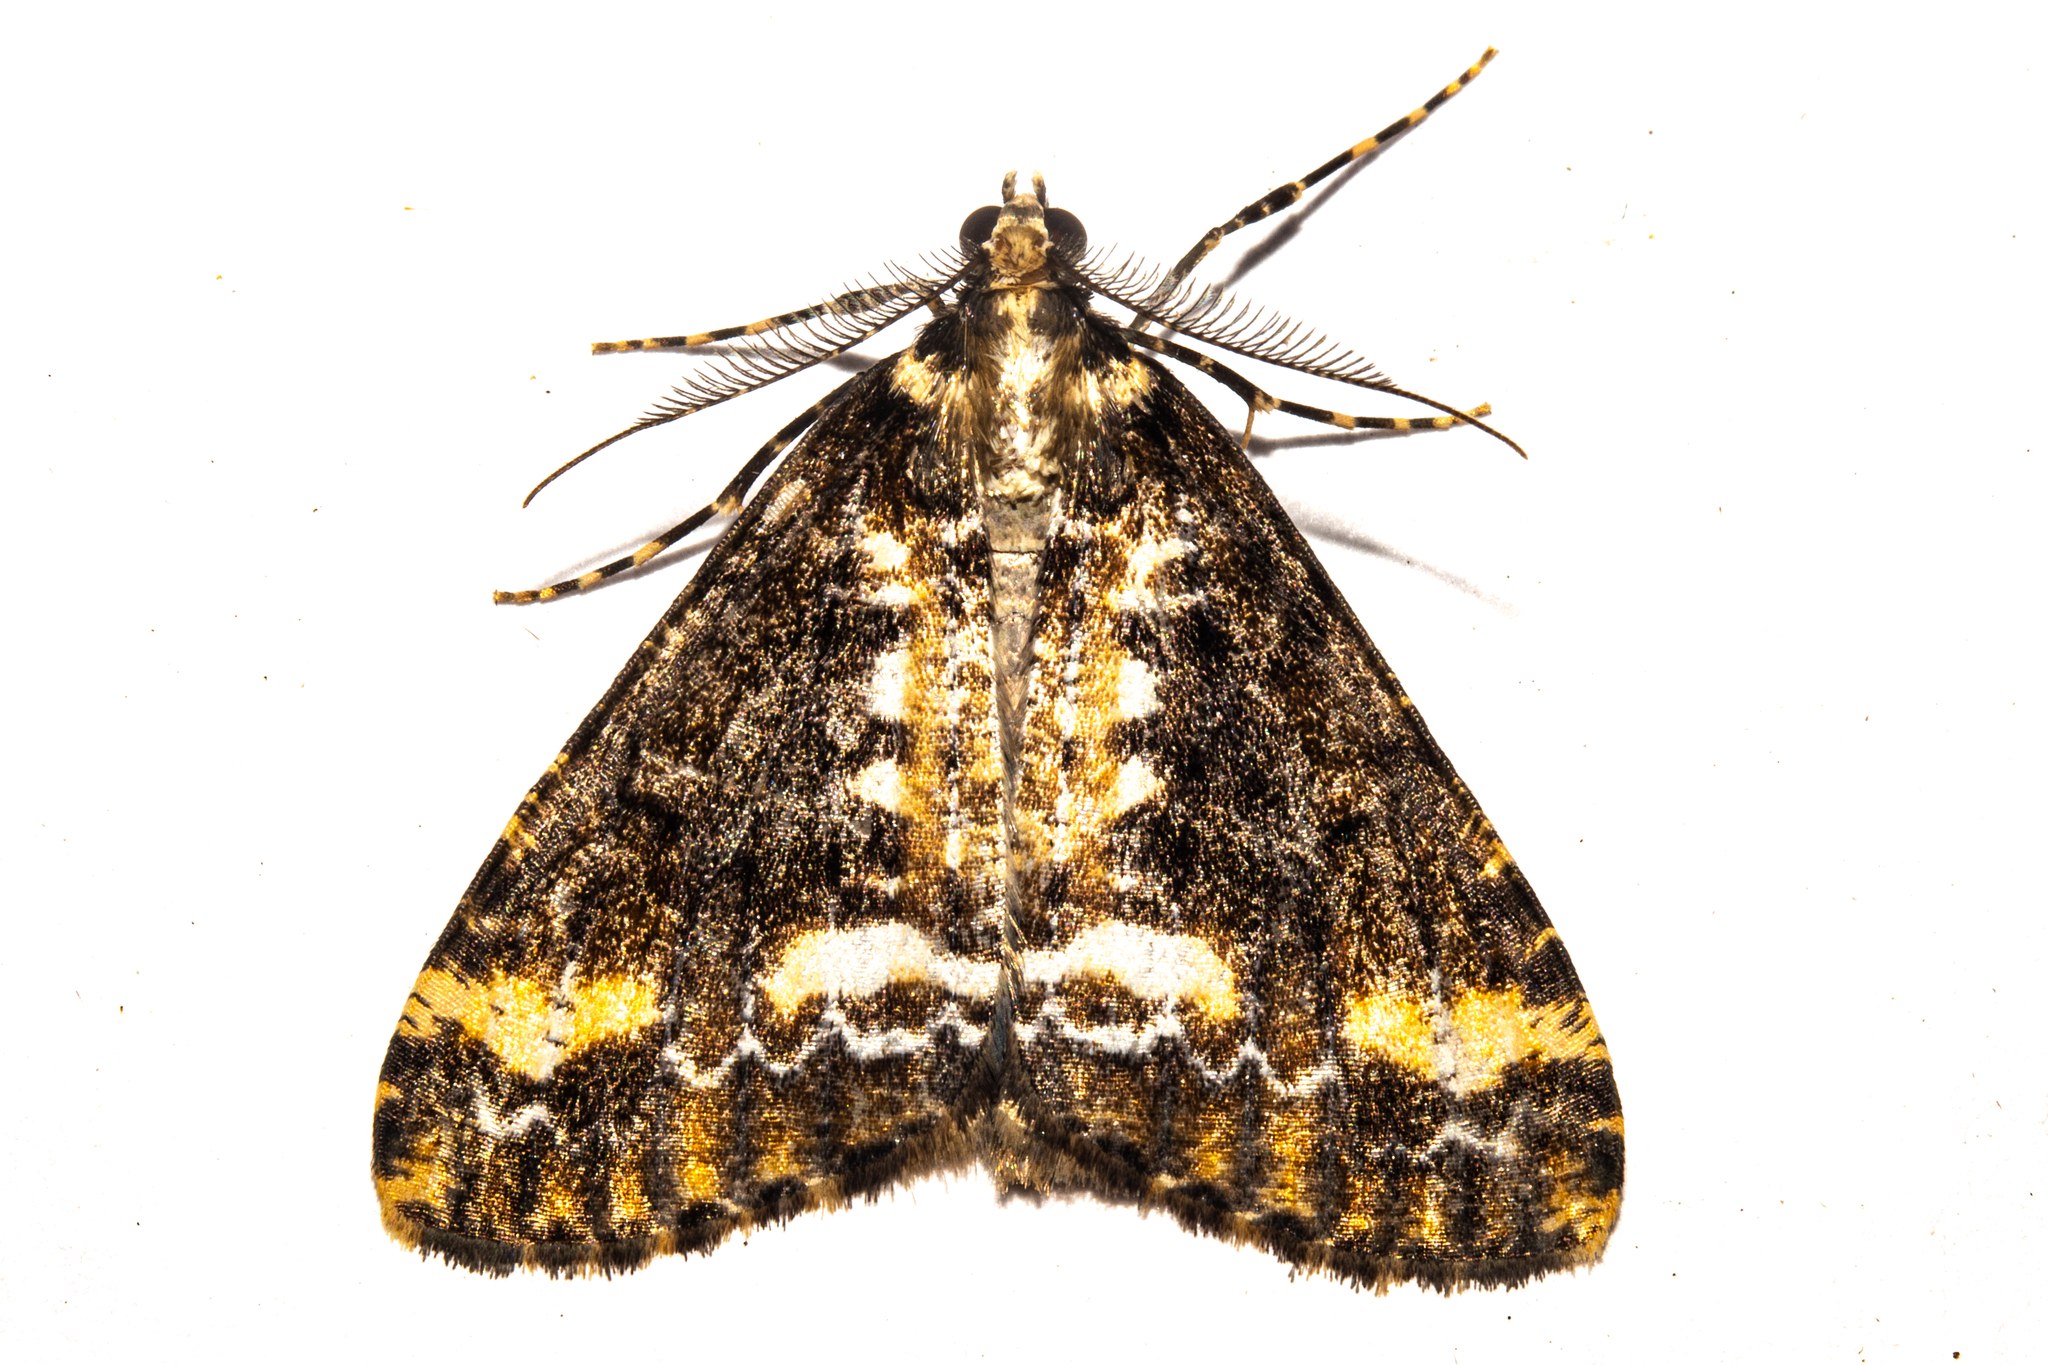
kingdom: Animalia
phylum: Arthropoda
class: Insecta
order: Lepidoptera
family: Geometridae
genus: Pseudocoremia
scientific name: Pseudocoremia leucelaea
